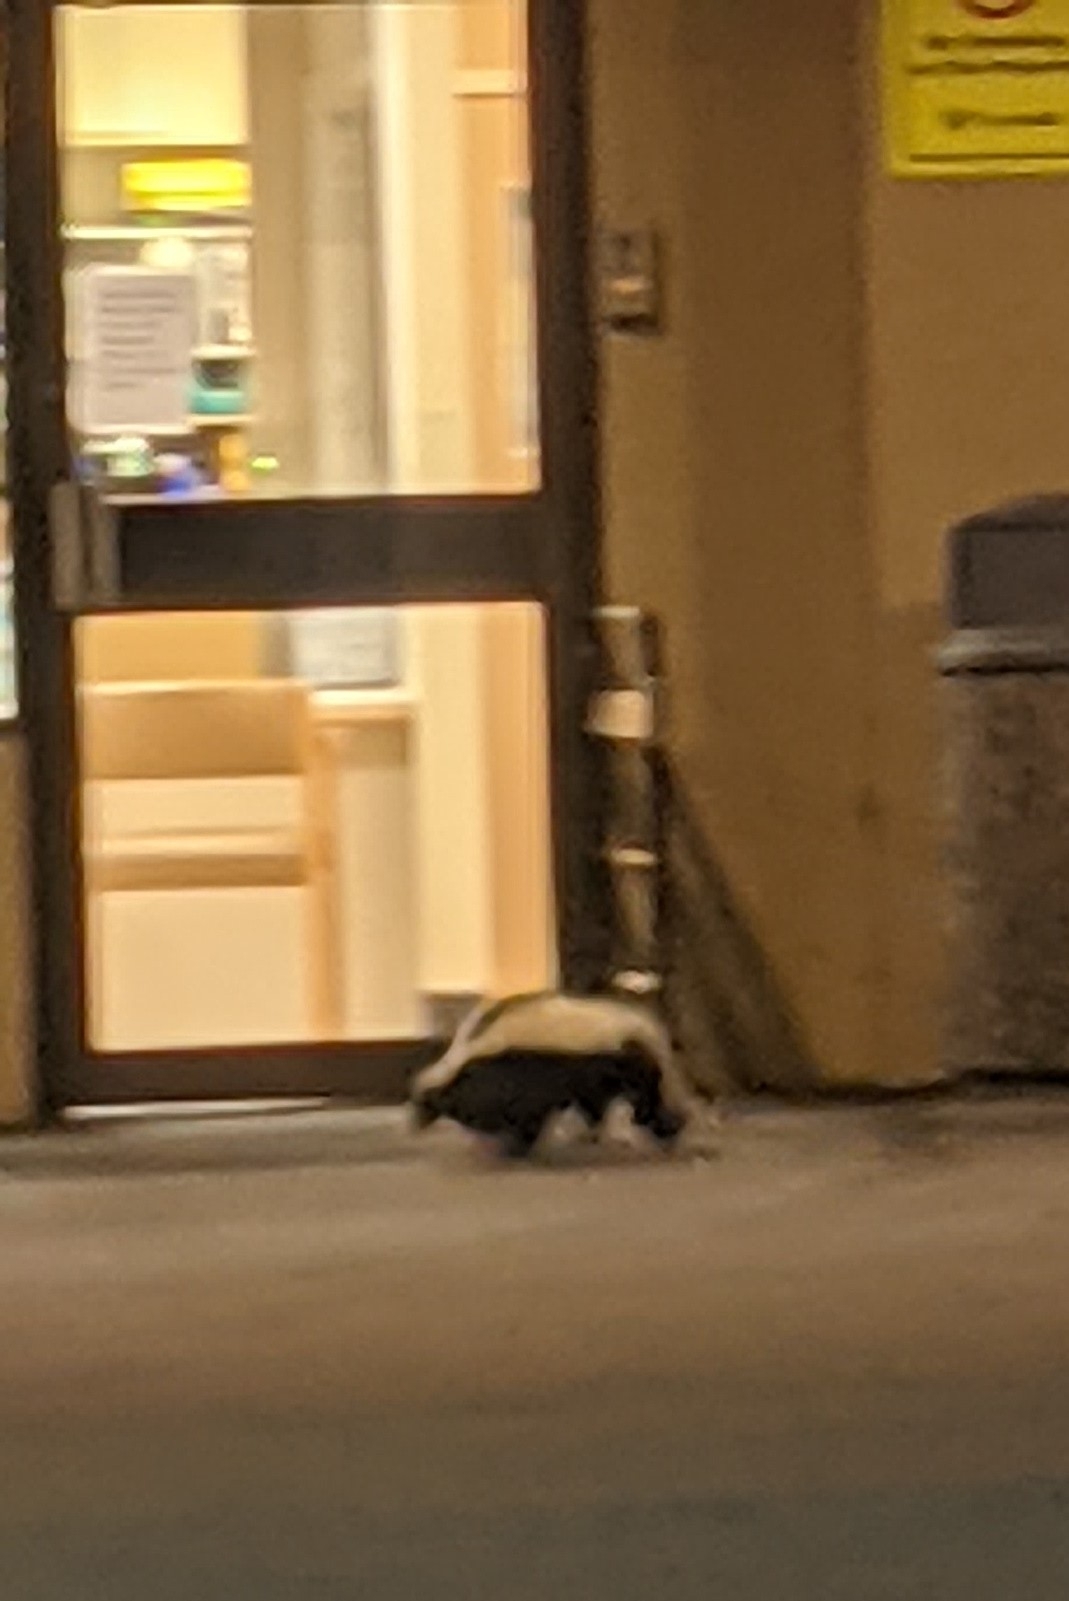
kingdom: Animalia
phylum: Chordata
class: Mammalia
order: Carnivora
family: Mephitidae
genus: Mephitis
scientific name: Mephitis mephitis
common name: Striped skunk
